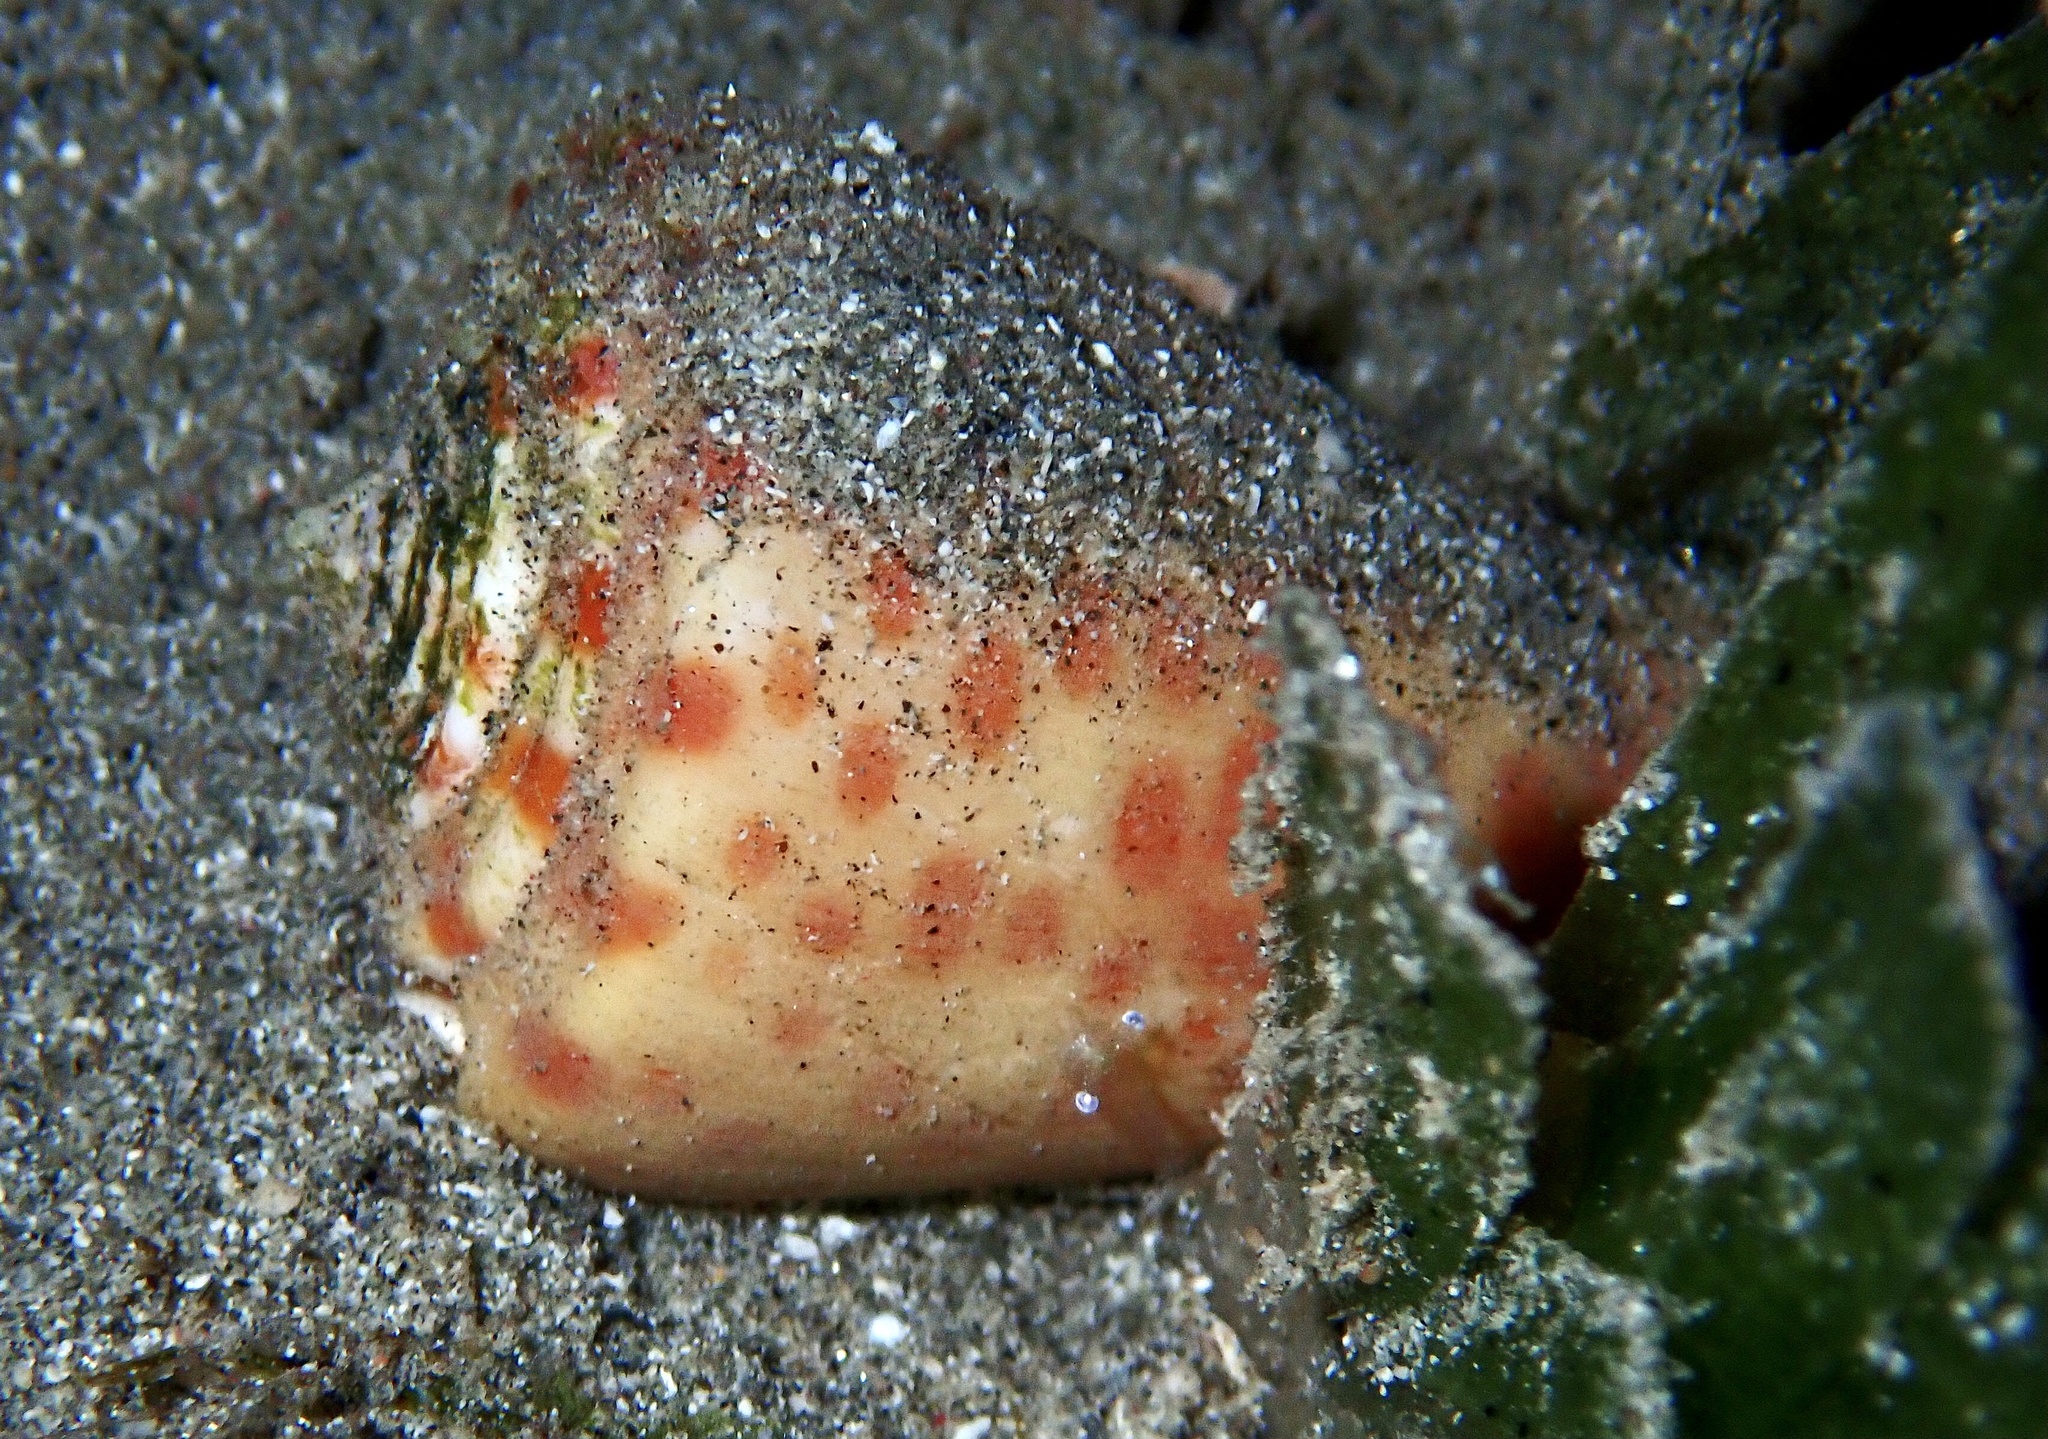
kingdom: Animalia
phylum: Mollusca
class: Gastropoda
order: Neogastropoda
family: Conidae
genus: Conus
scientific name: Conus tessulatus
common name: Tessellate cone
